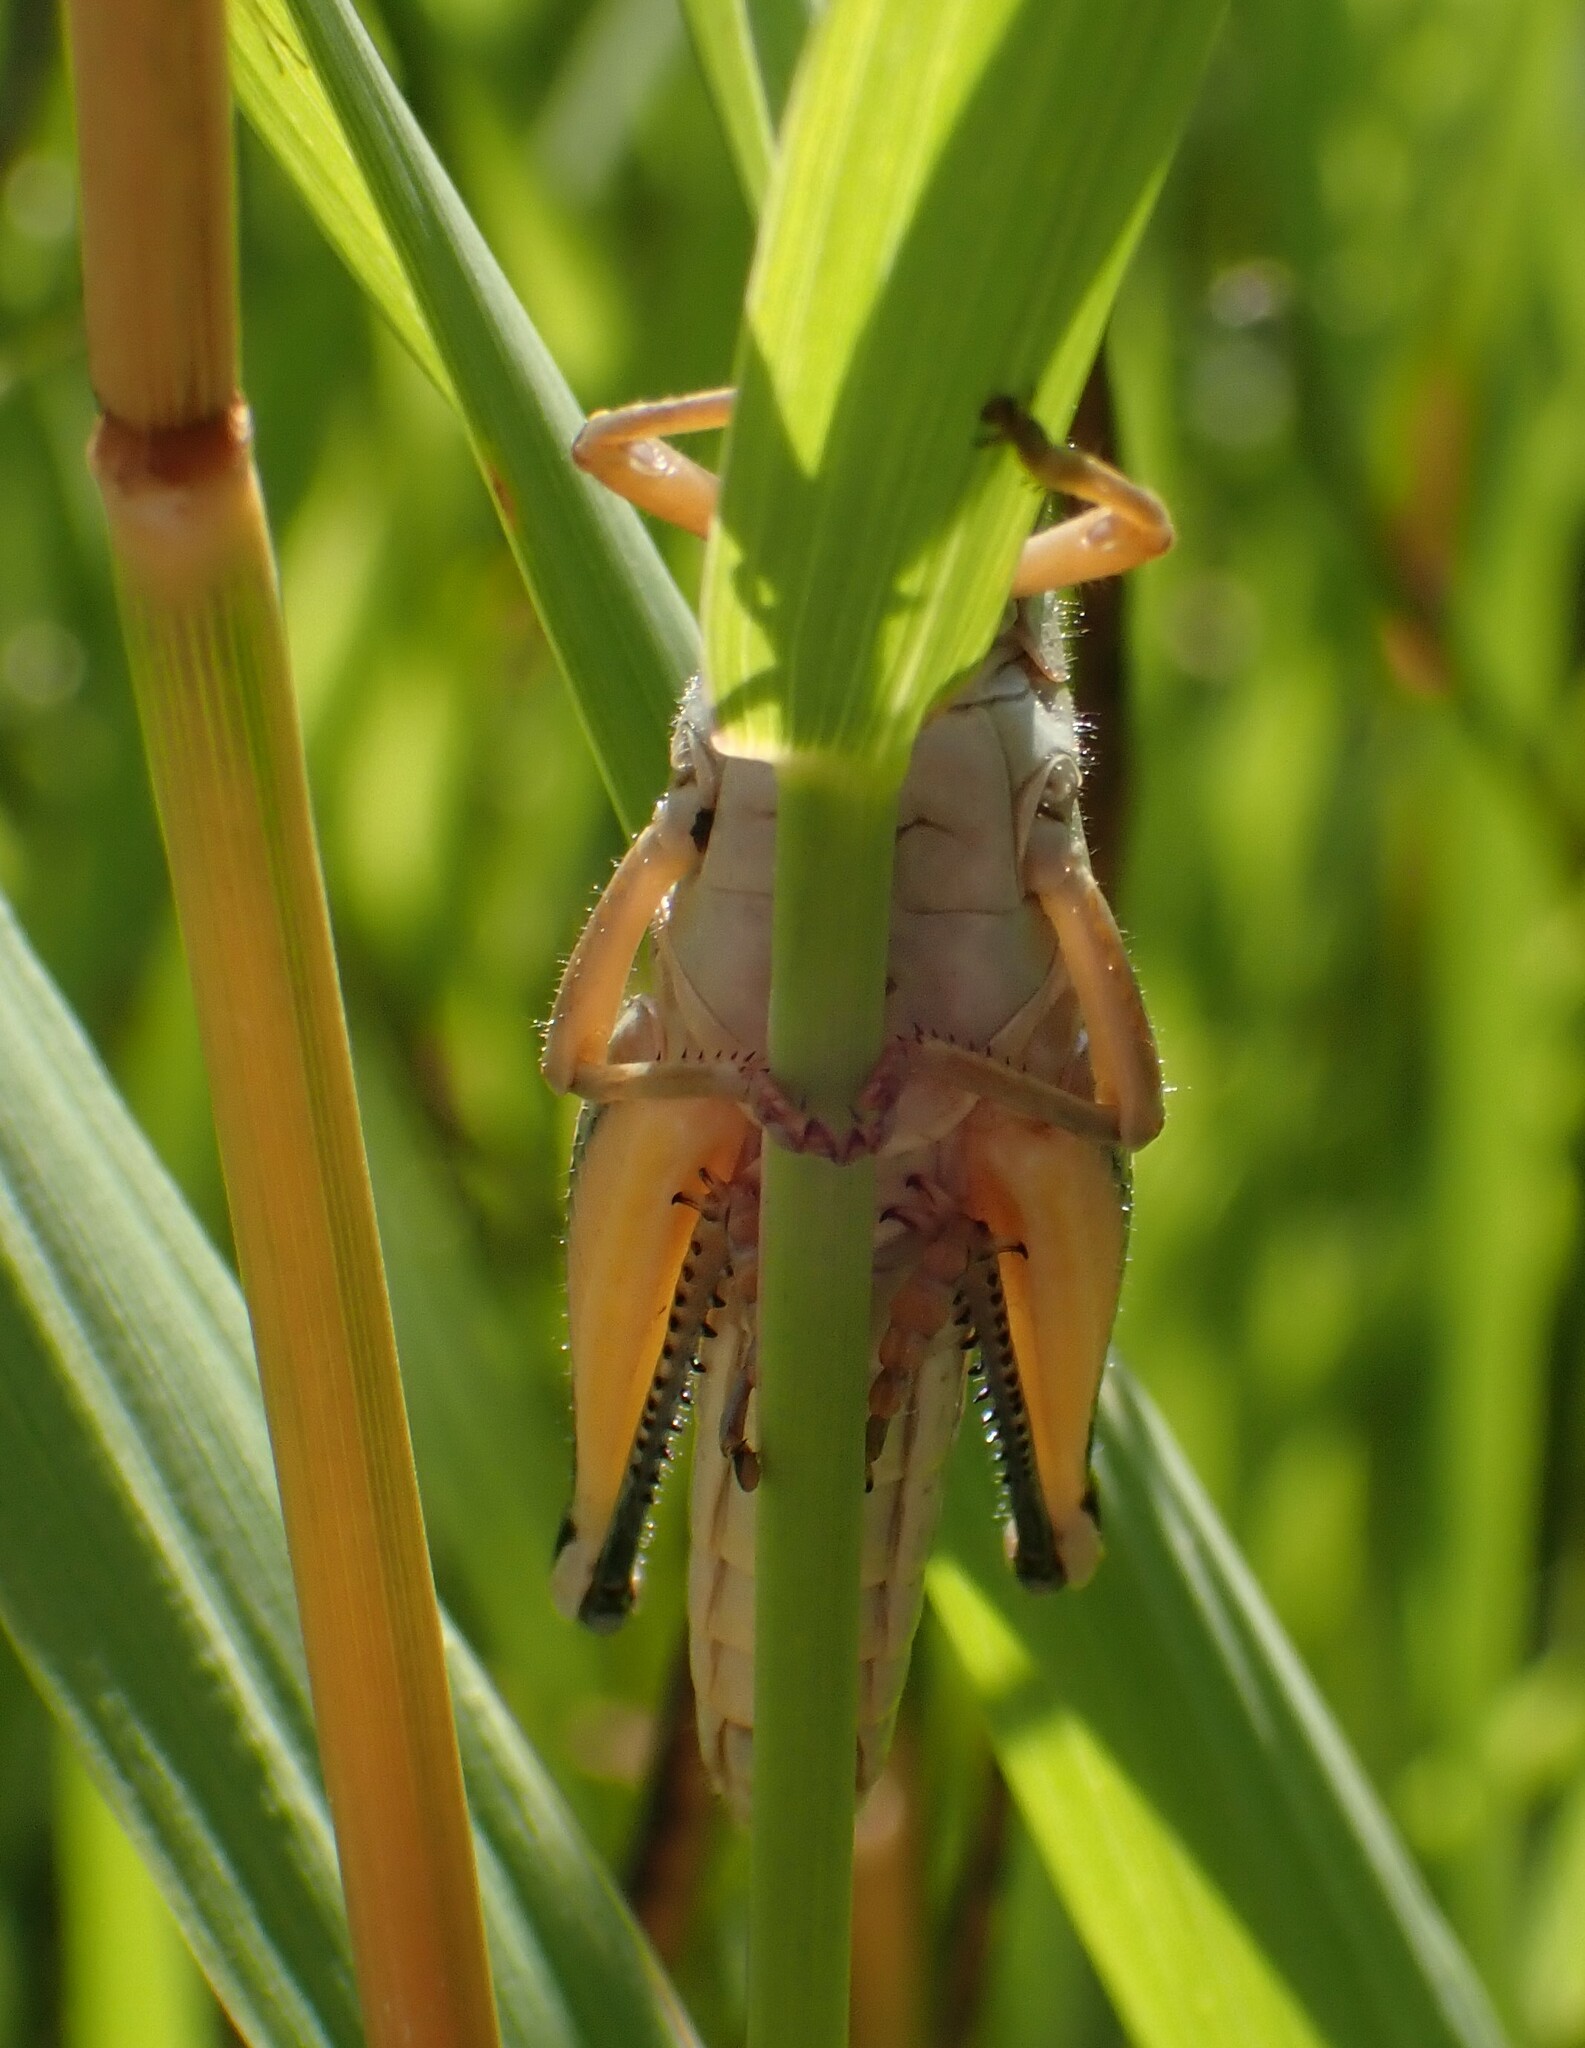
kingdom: Animalia
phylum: Arthropoda
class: Insecta
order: Orthoptera
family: Acrididae
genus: Melanoplus
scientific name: Melanoplus bivittatus
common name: Two-striped grasshopper
